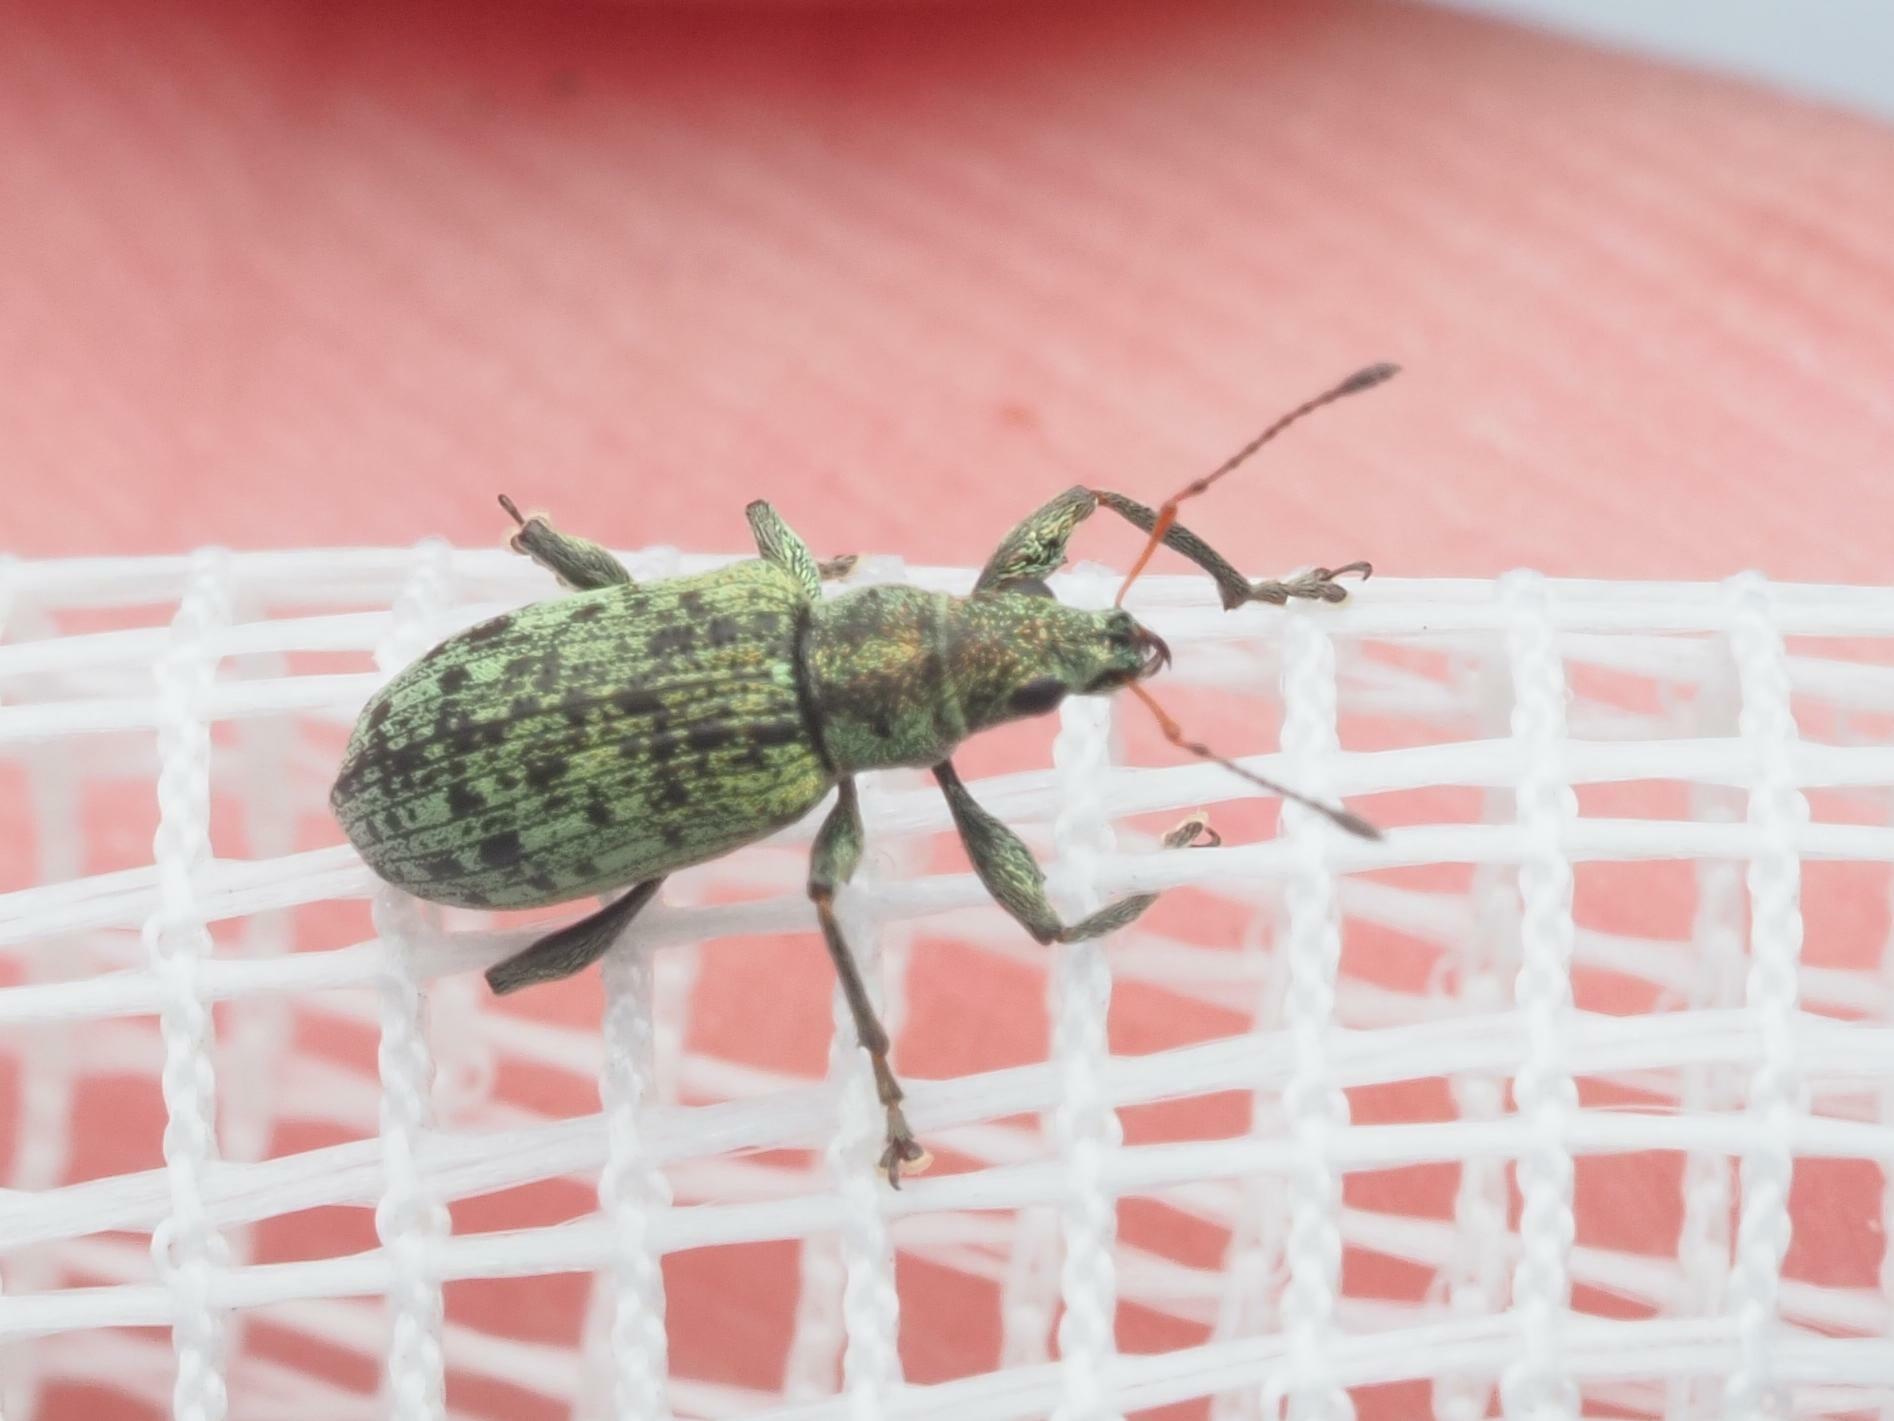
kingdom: Animalia
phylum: Arthropoda
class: Insecta
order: Coleoptera
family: Curculionidae
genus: Polydrusus
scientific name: Polydrusus cervinus
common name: Weevil
